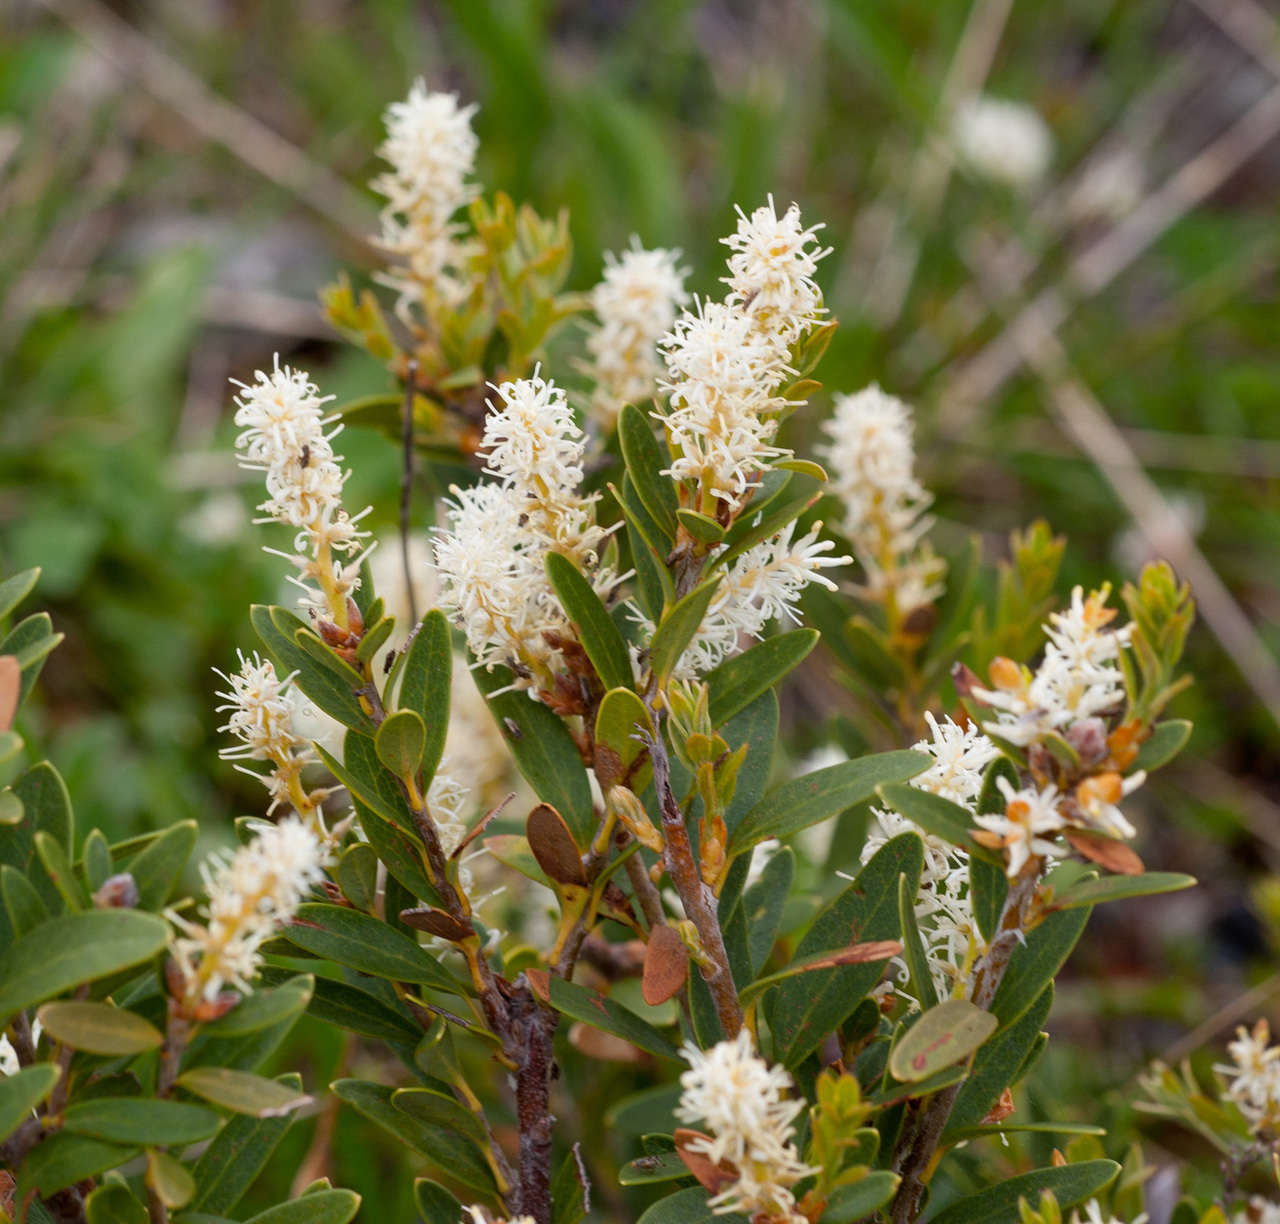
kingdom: Plantae
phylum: Tracheophyta
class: Magnoliopsida
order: Proteales
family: Proteaceae
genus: Orites
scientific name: Orites lancifolius
